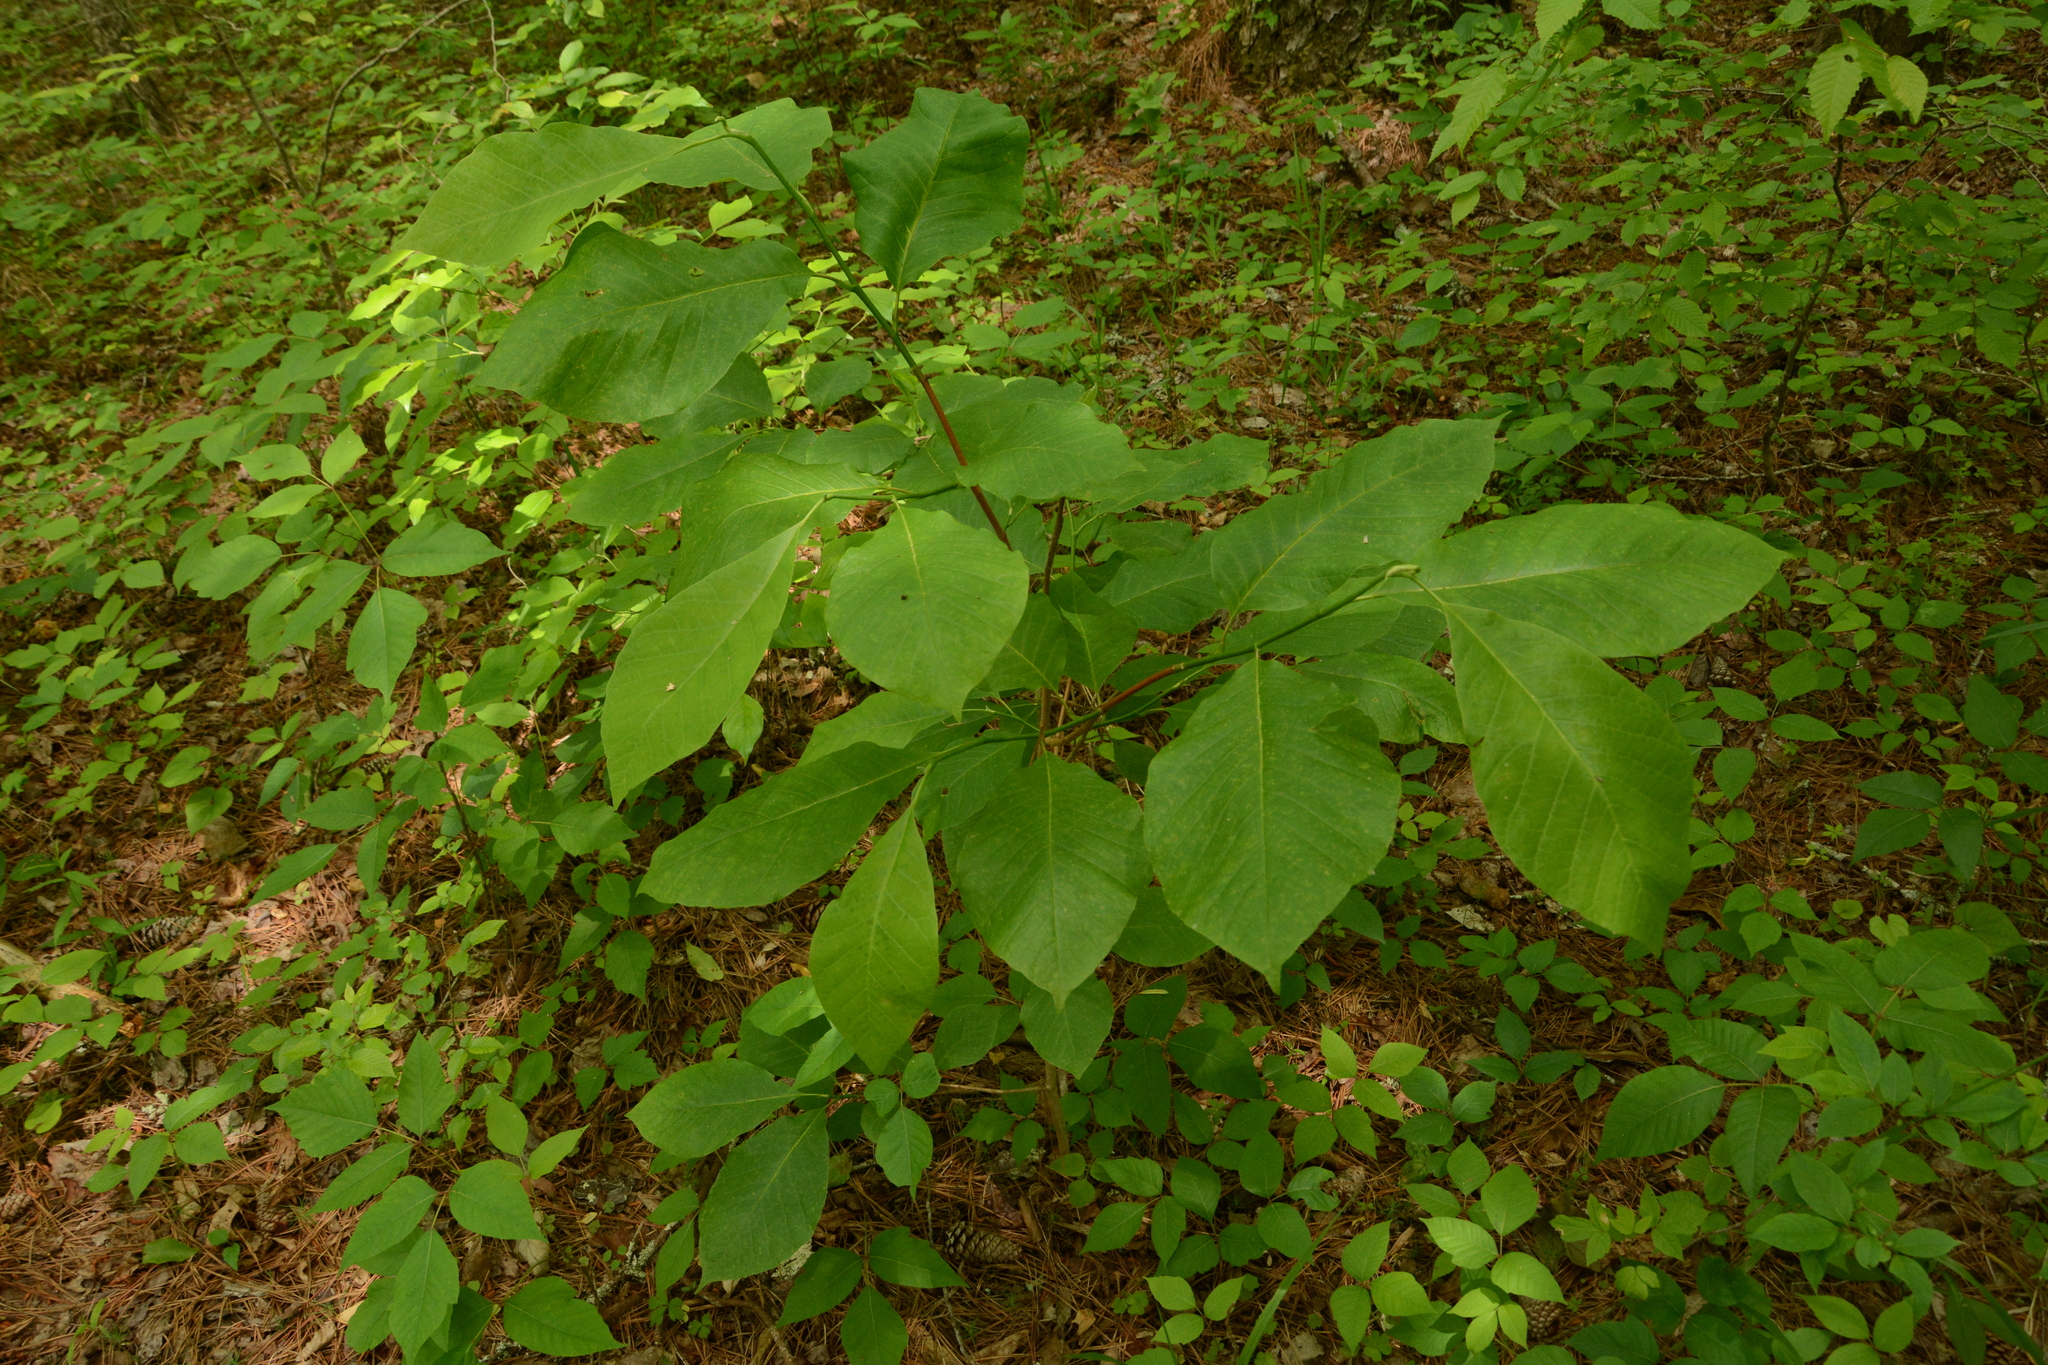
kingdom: Plantae
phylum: Tracheophyta
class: Magnoliopsida
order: Magnoliales
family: Magnoliaceae
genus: Magnolia
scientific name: Magnolia acuminata
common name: Cucumber magnolia
